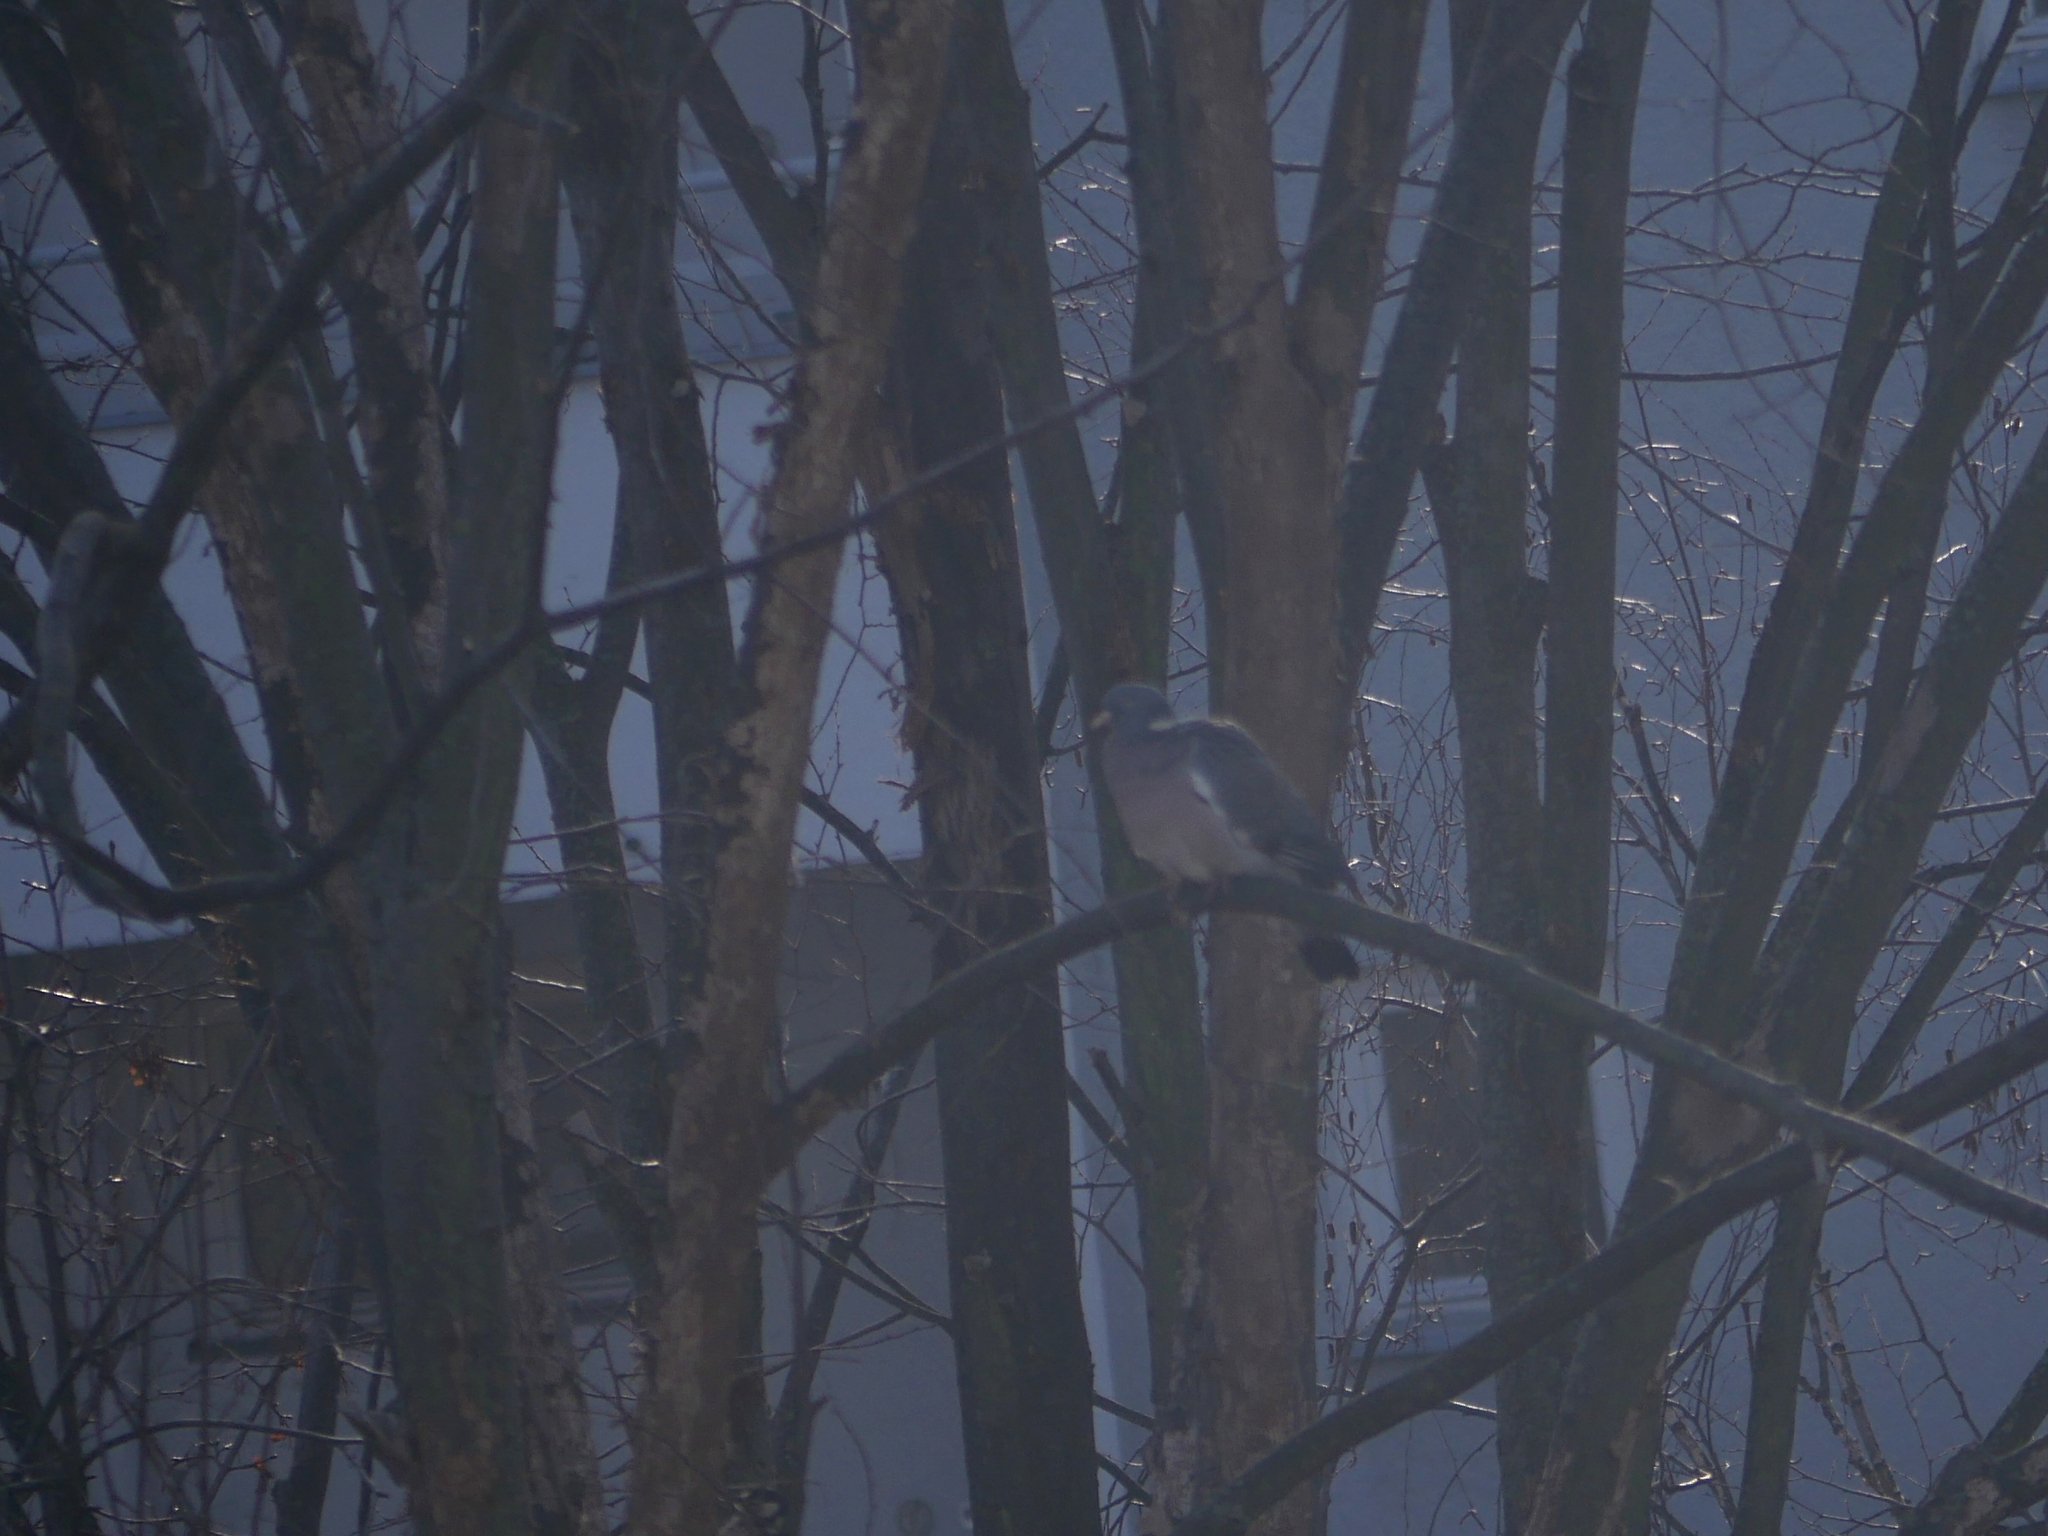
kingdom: Animalia
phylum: Chordata
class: Aves
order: Columbiformes
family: Columbidae
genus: Columba
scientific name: Columba palumbus
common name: Common wood pigeon
